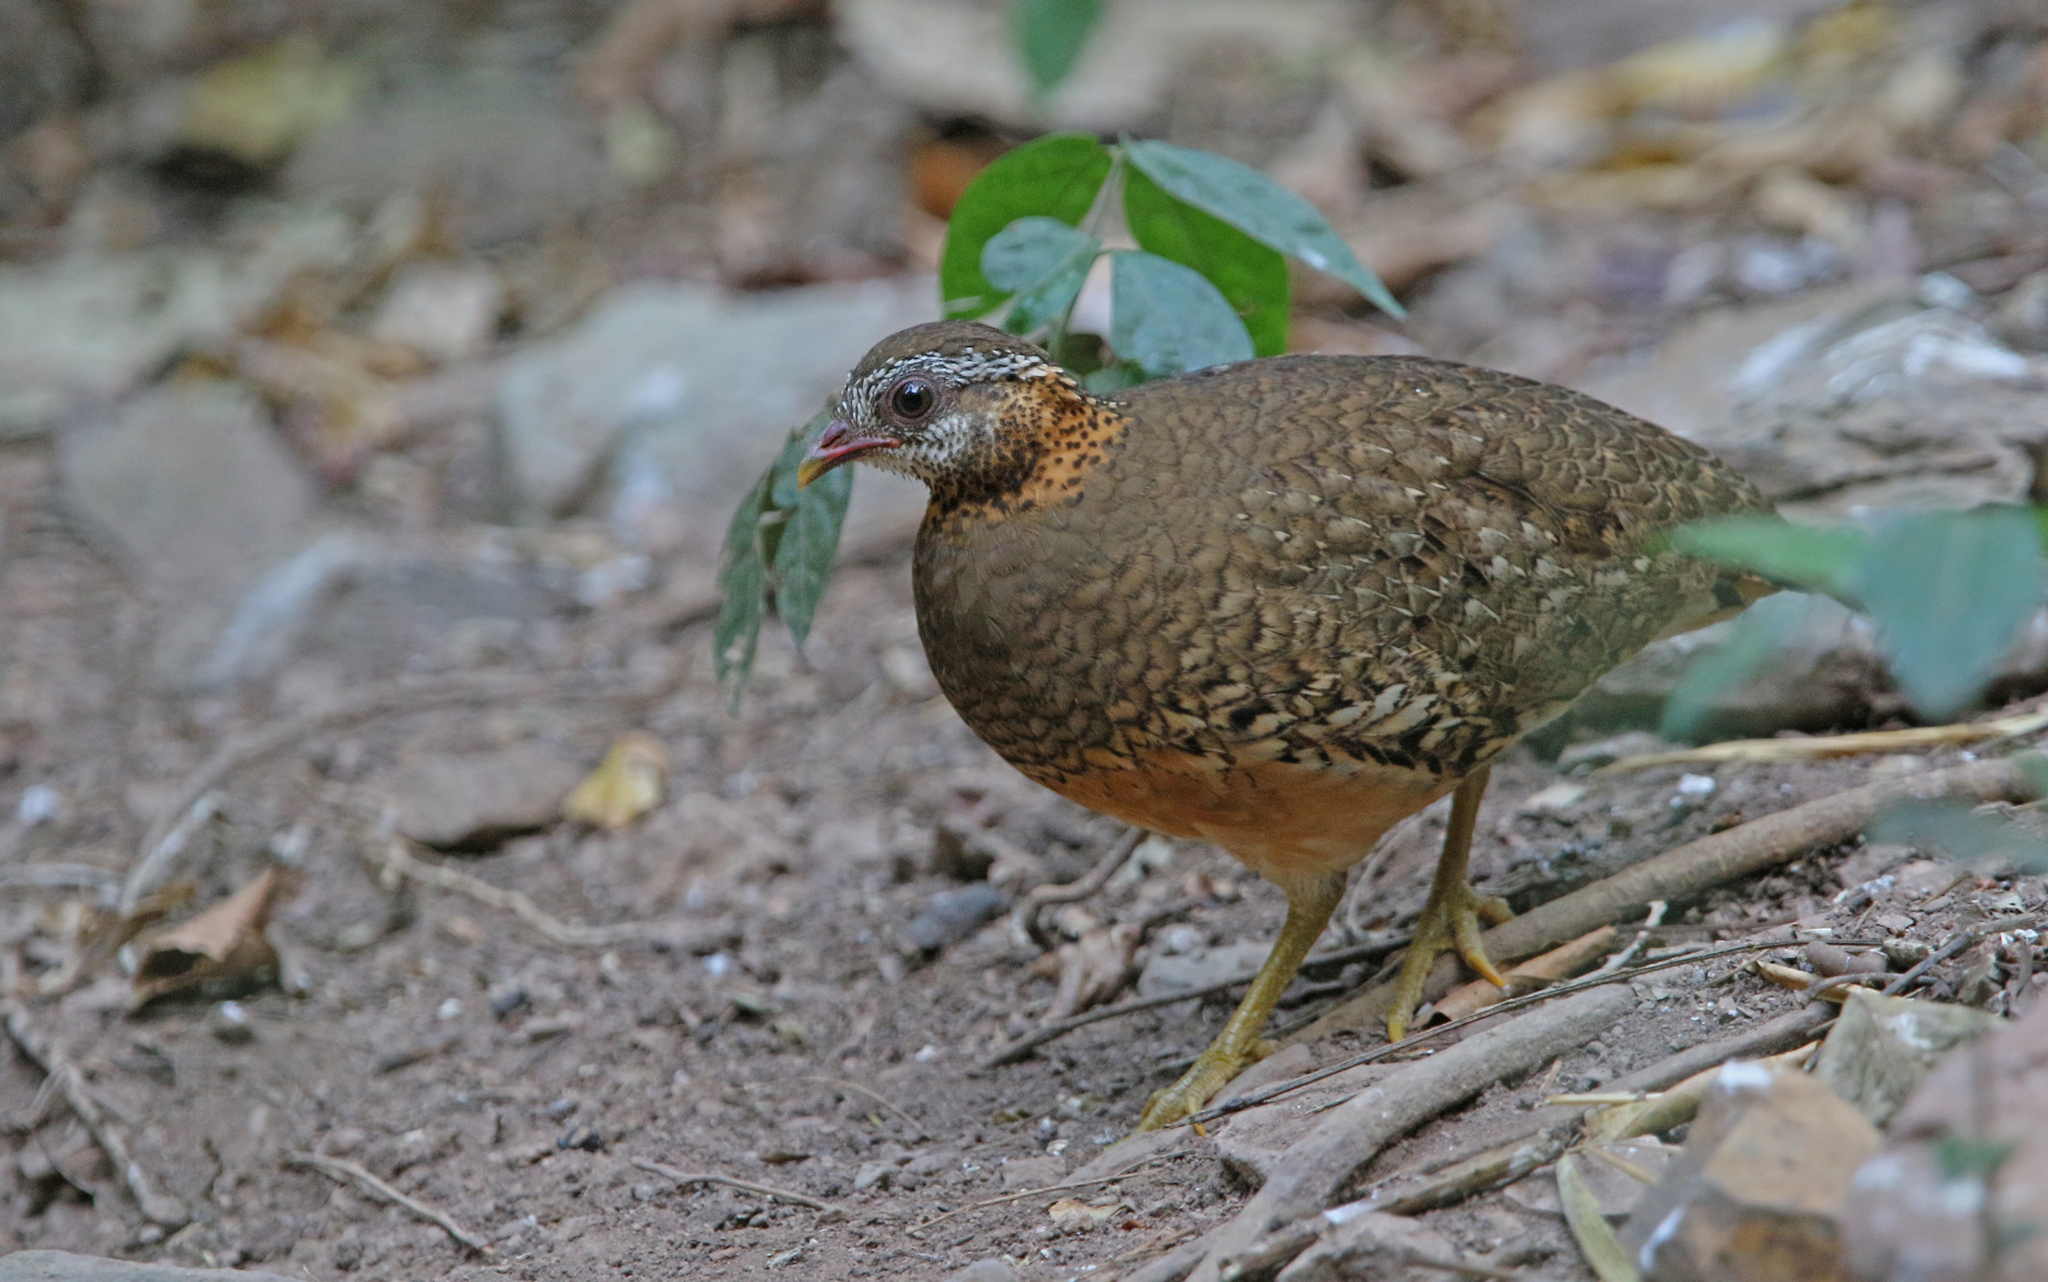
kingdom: Animalia
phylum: Chordata
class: Aves
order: Galliformes
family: Phasianidae
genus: Tropicoperdix
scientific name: Tropicoperdix chloropus
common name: Green-legged partridge
